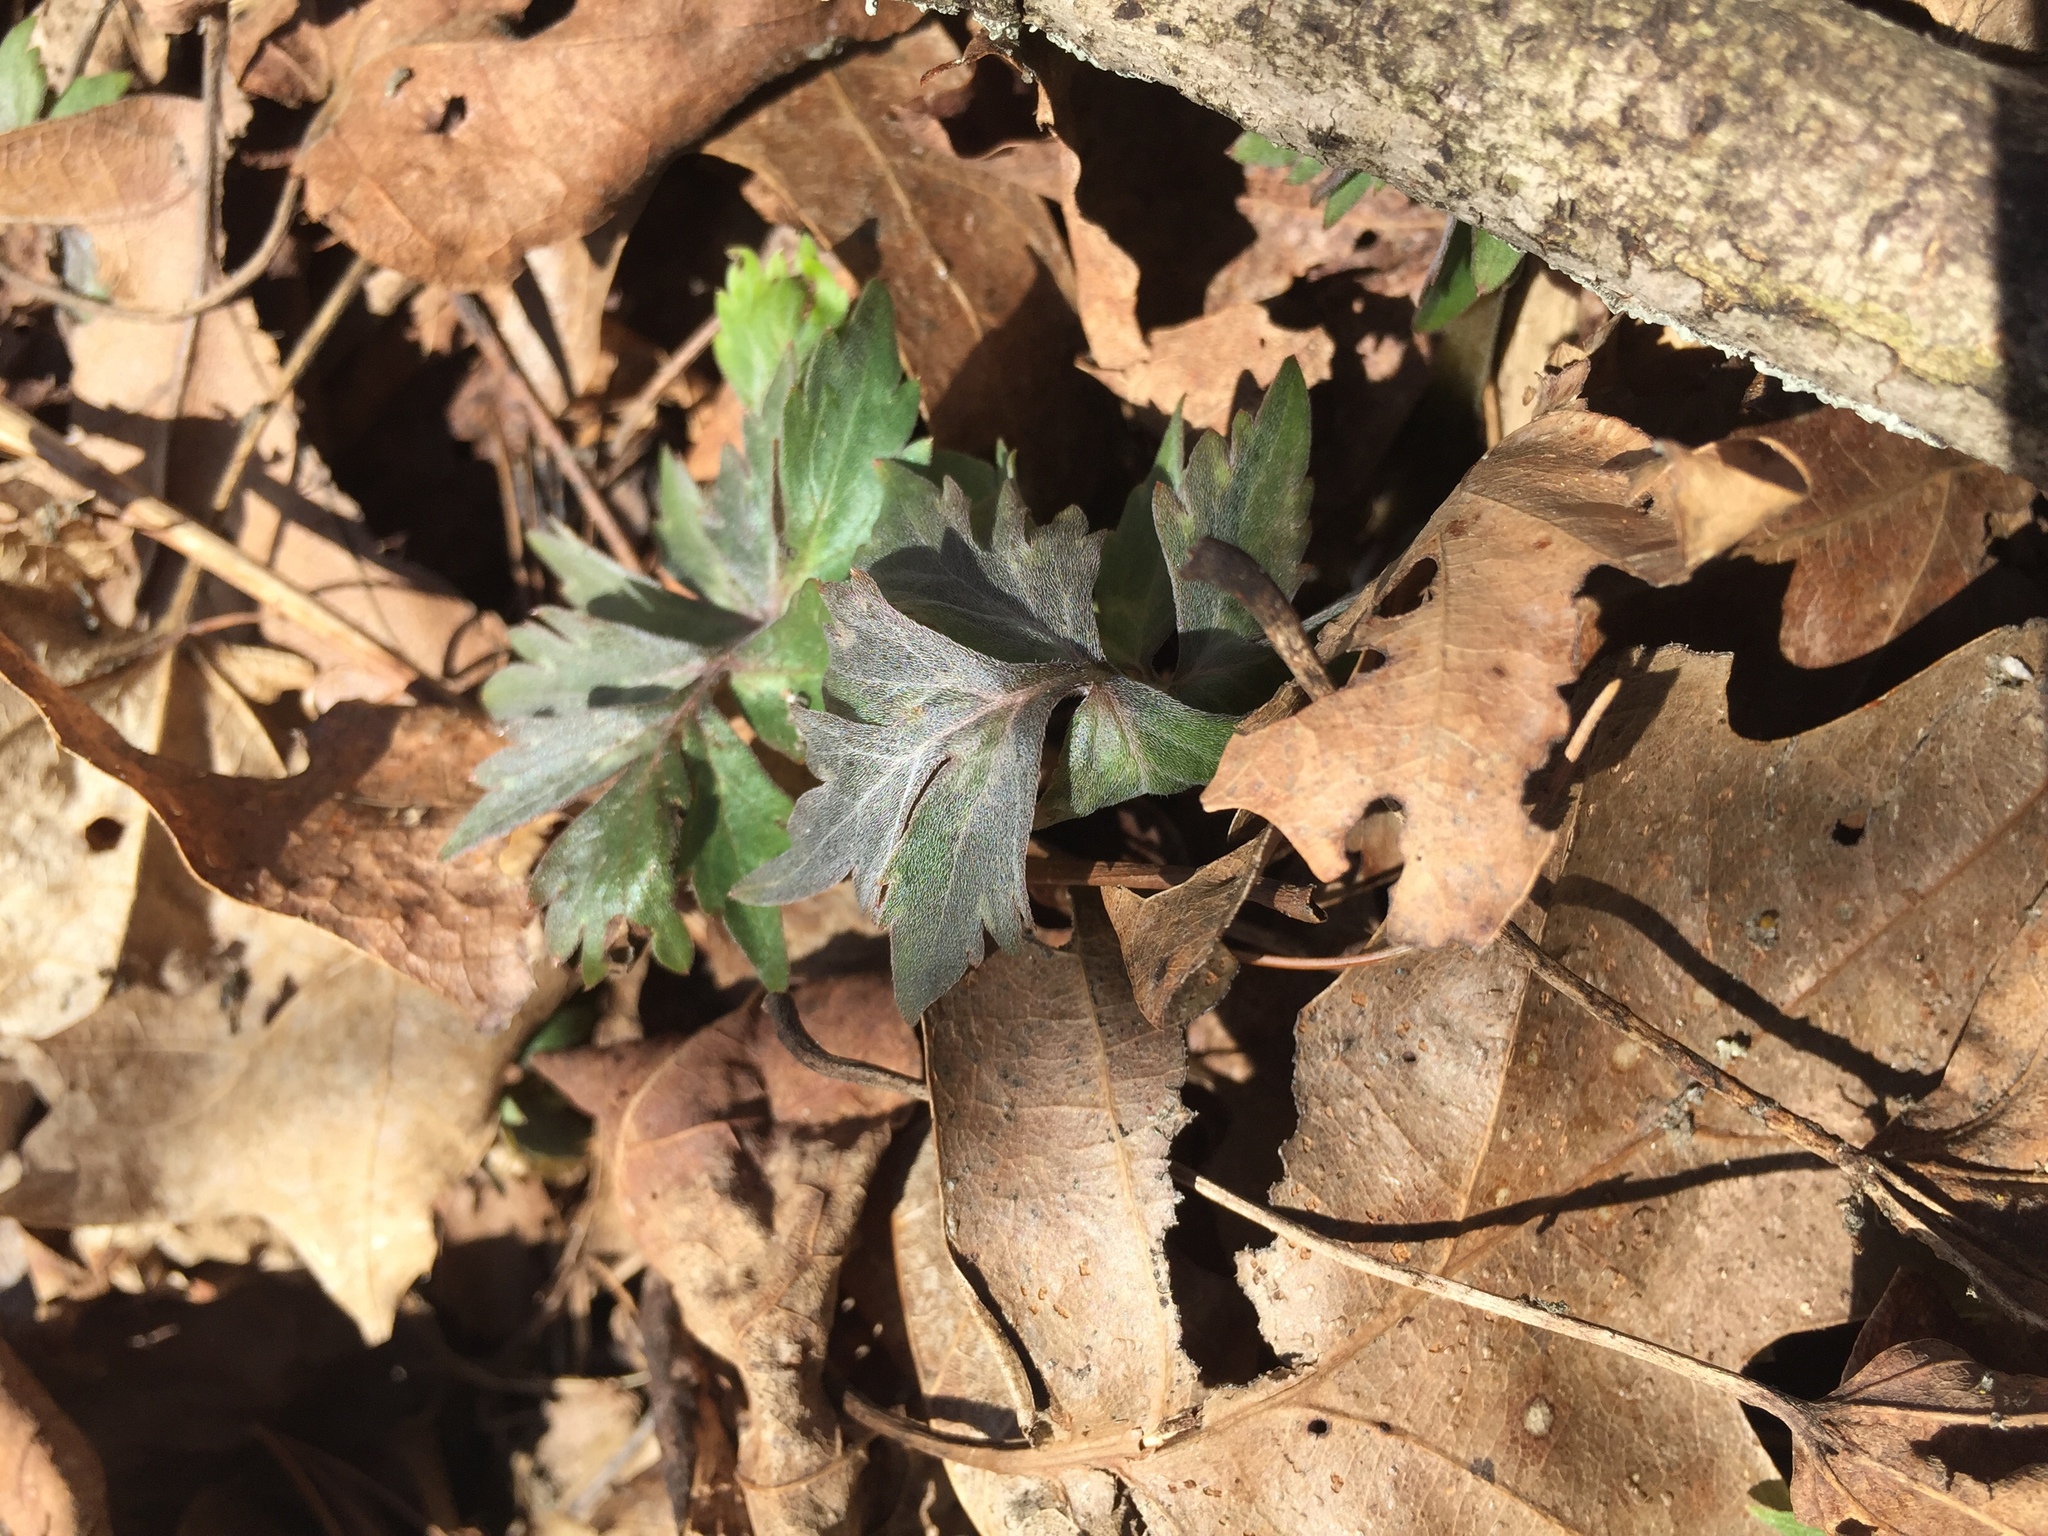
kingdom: Plantae
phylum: Tracheophyta
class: Magnoliopsida
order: Boraginales
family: Hydrophyllaceae
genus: Hydrophyllum
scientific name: Hydrophyllum virginianum
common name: Virginia waterleaf
